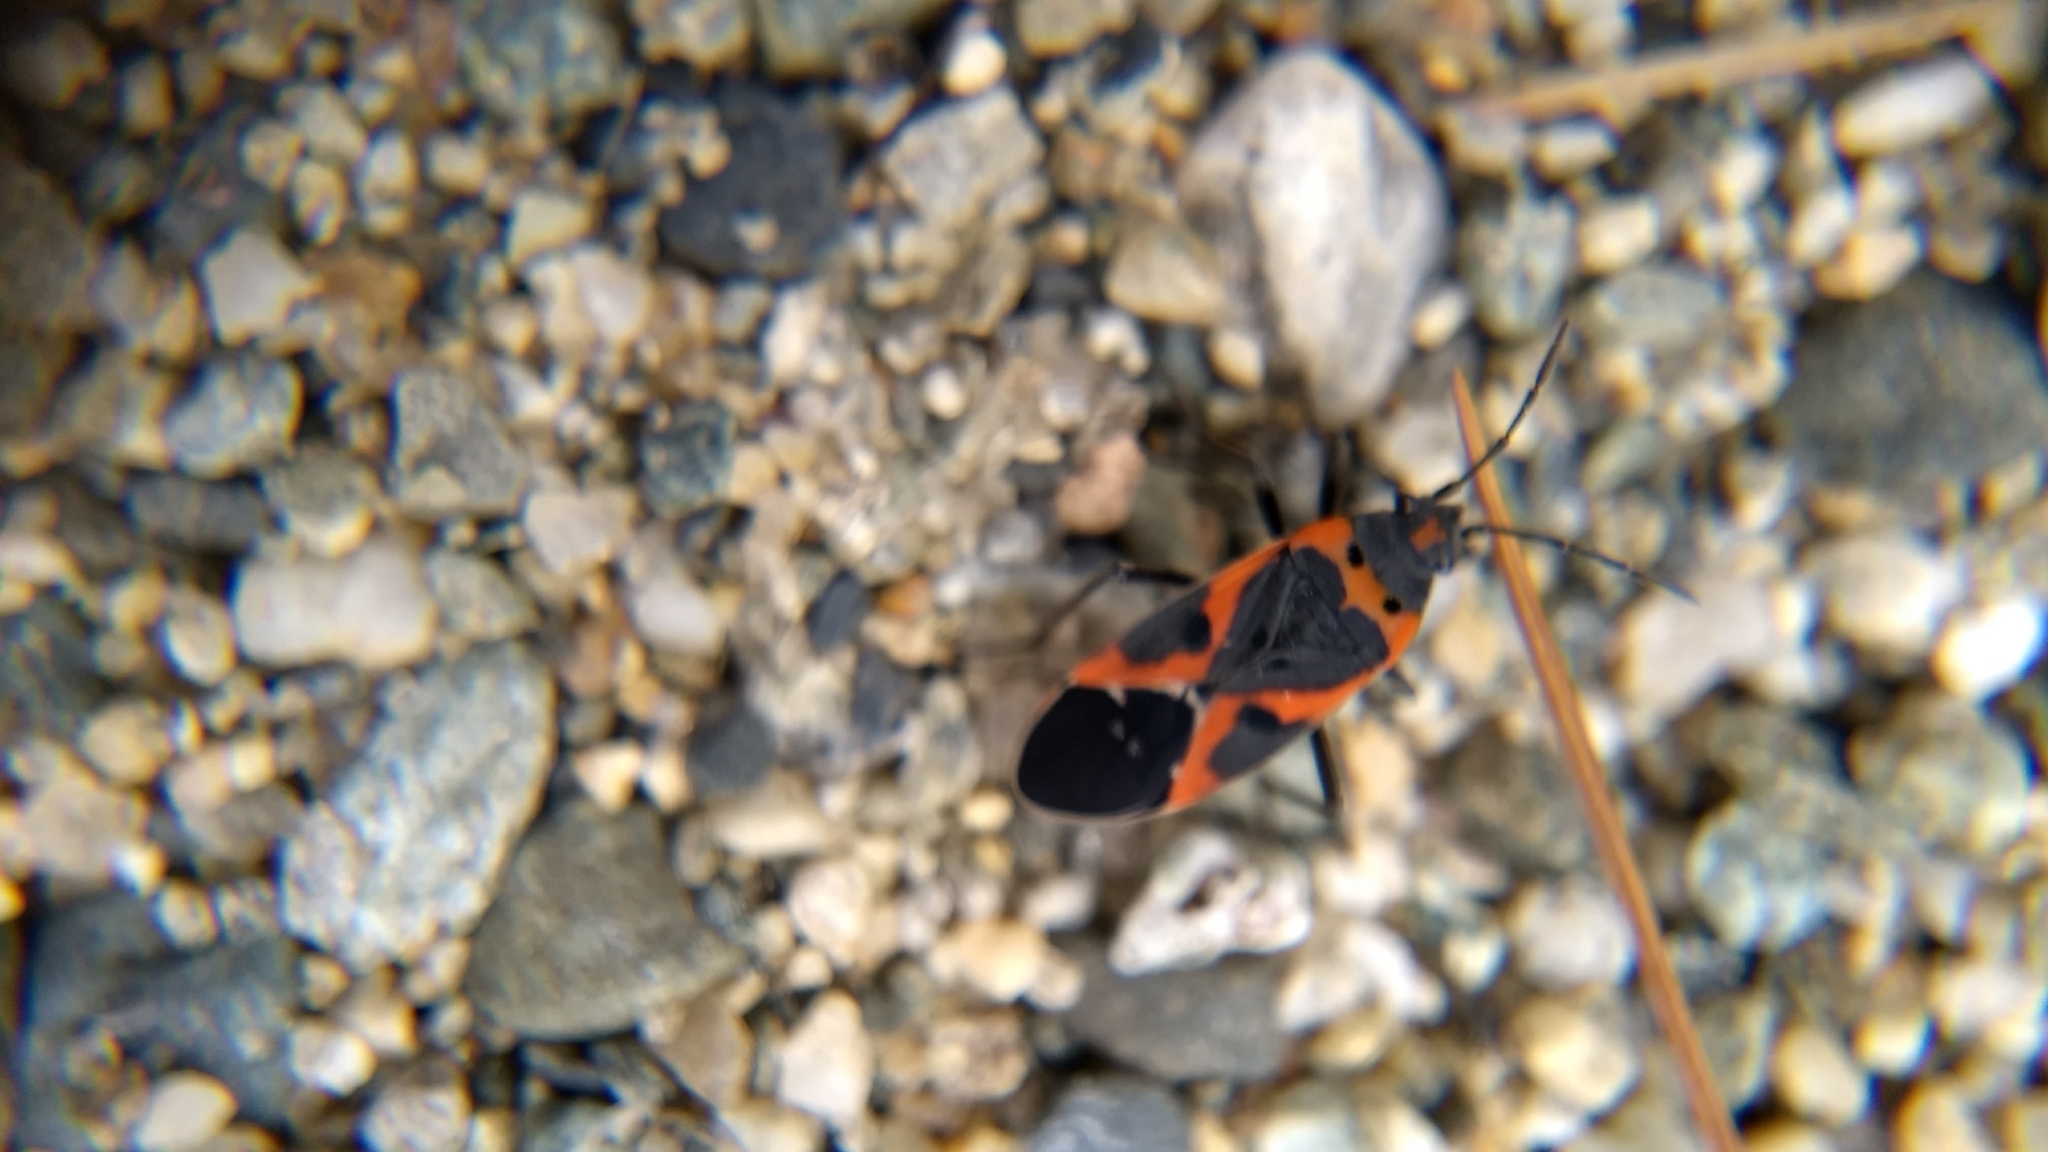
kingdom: Animalia
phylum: Arthropoda
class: Insecta
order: Hemiptera
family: Lygaeidae
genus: Lygaeus
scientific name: Lygaeus kalmii
